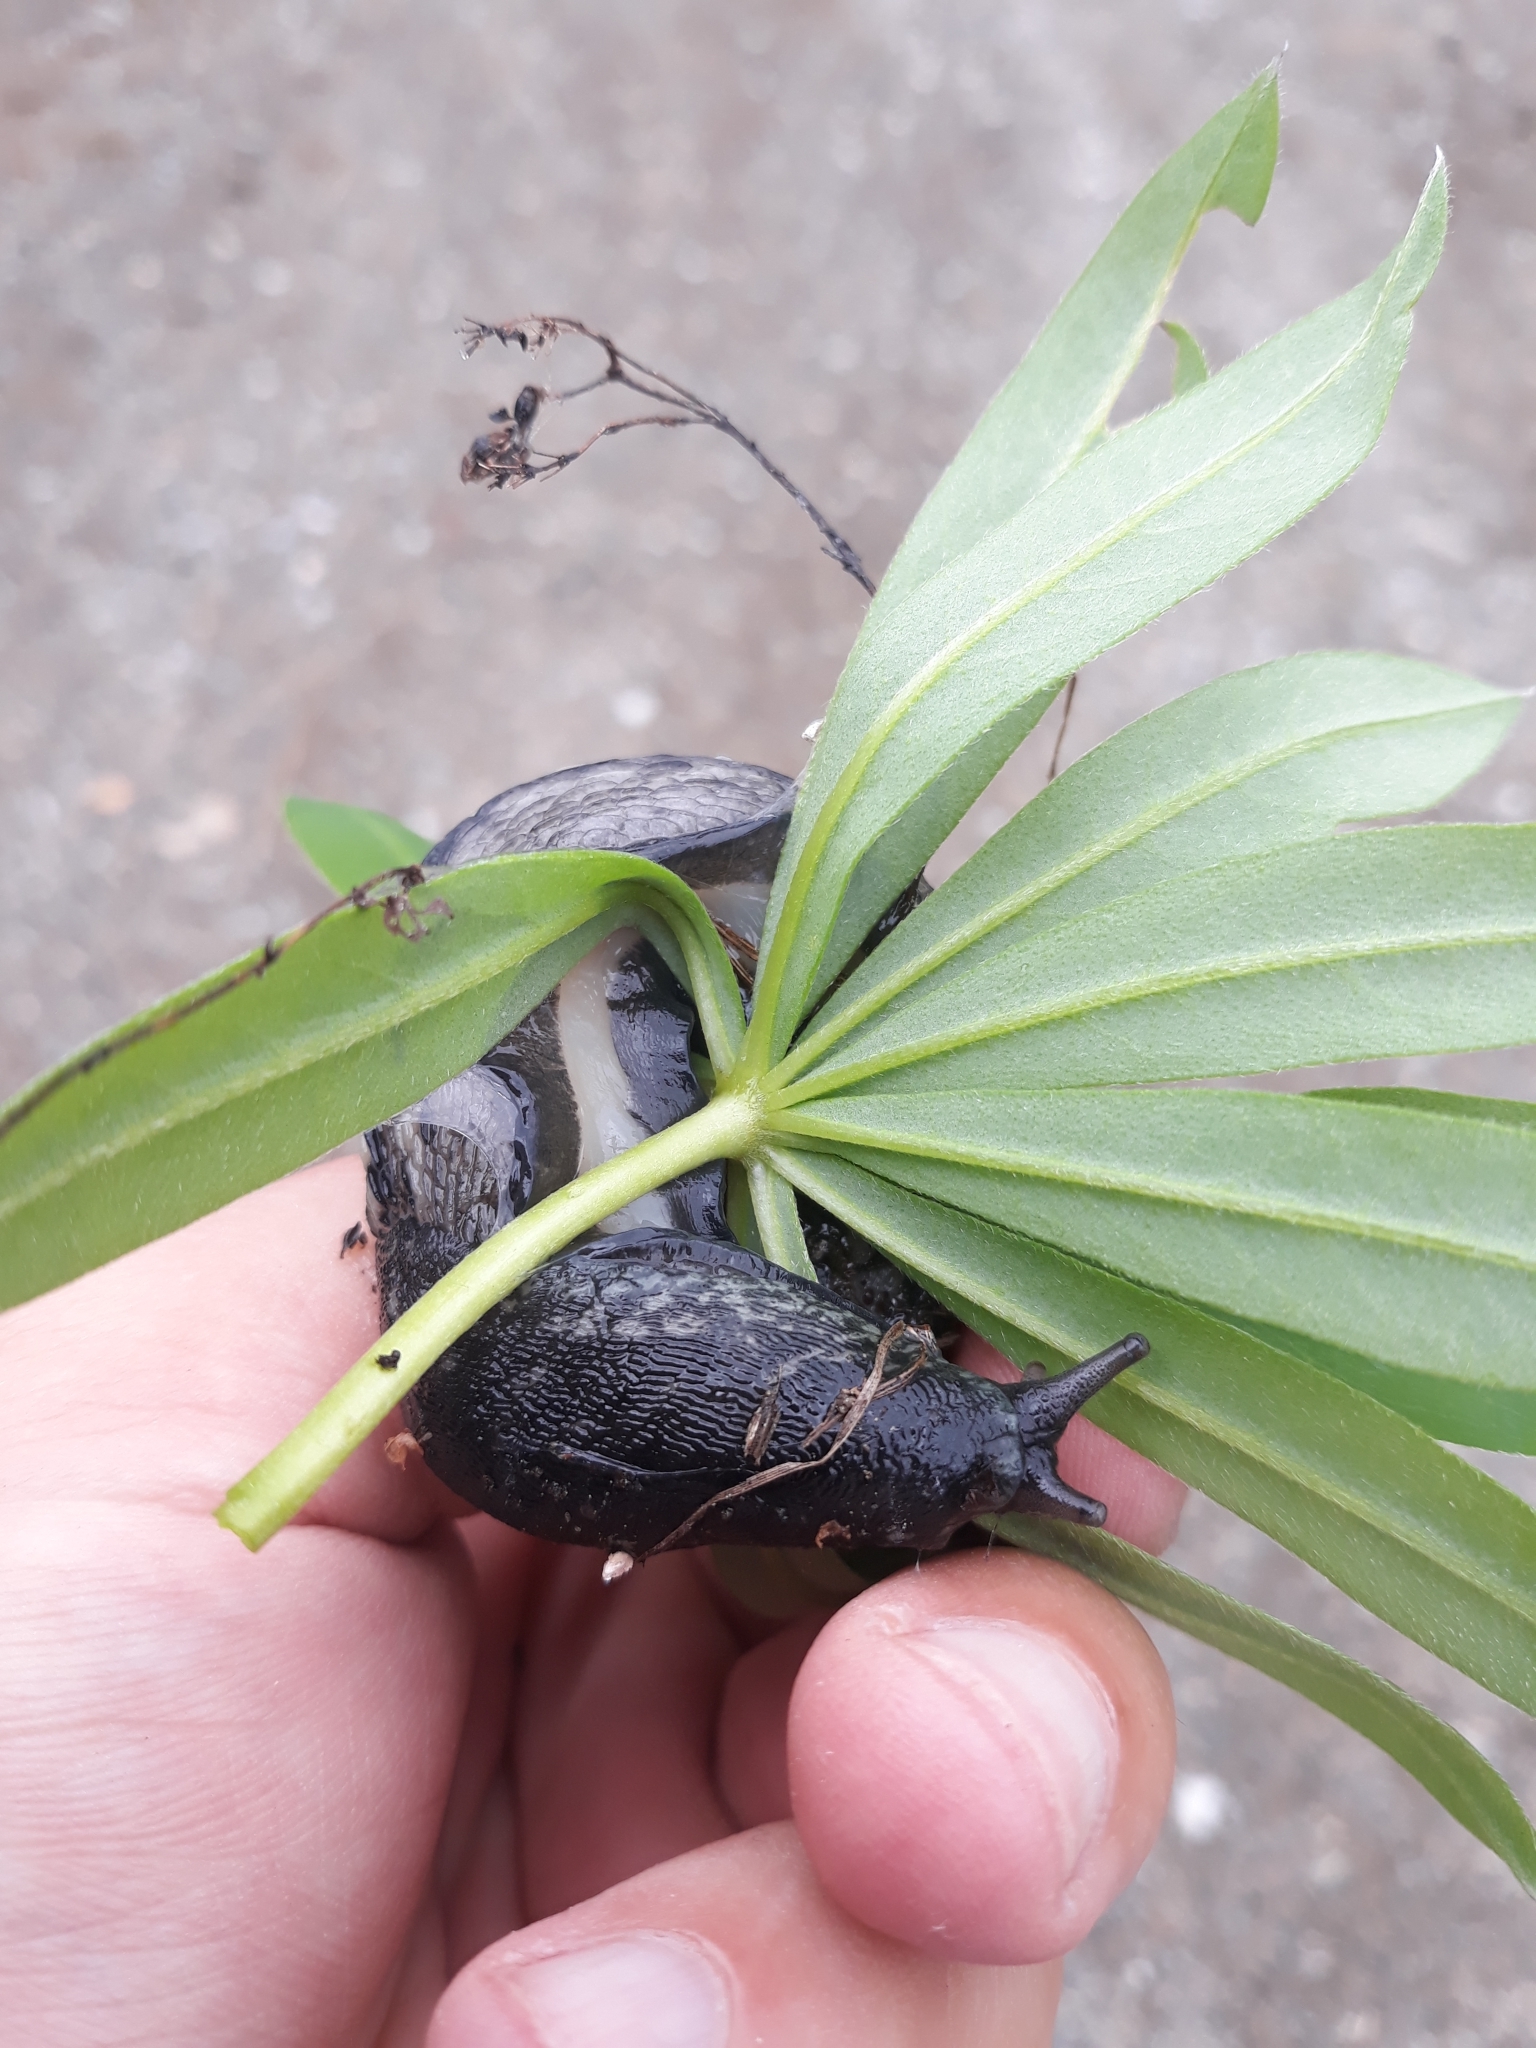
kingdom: Animalia
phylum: Mollusca
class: Gastropoda
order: Stylommatophora
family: Limacidae
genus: Limax
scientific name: Limax cinereoniger
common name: Ash-black slug
